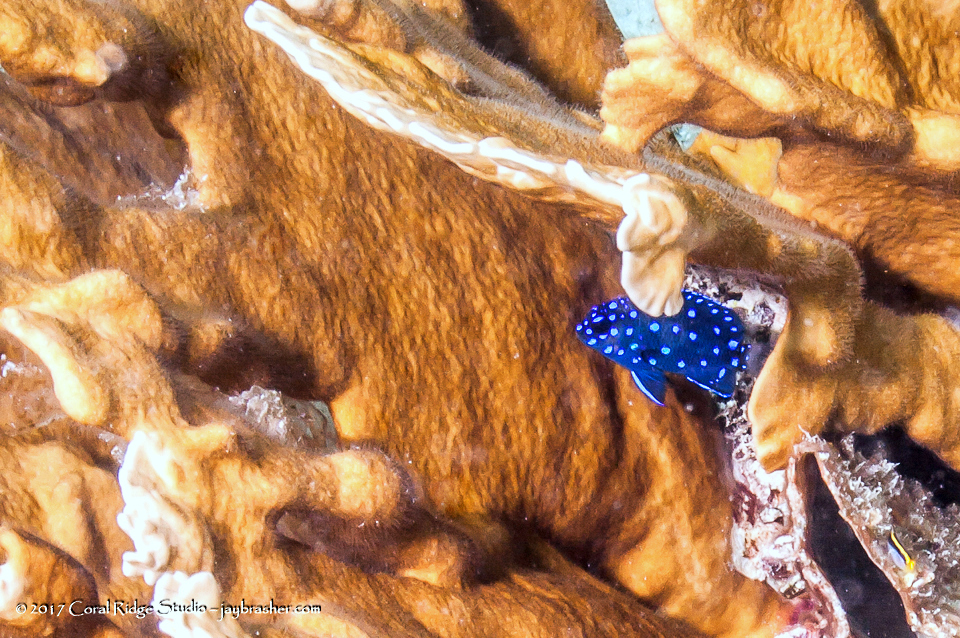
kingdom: Animalia
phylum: Chordata
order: Perciformes
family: Pomacentridae
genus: Microspathodon
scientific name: Microspathodon chrysurus
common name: Yellowtail damselfish
